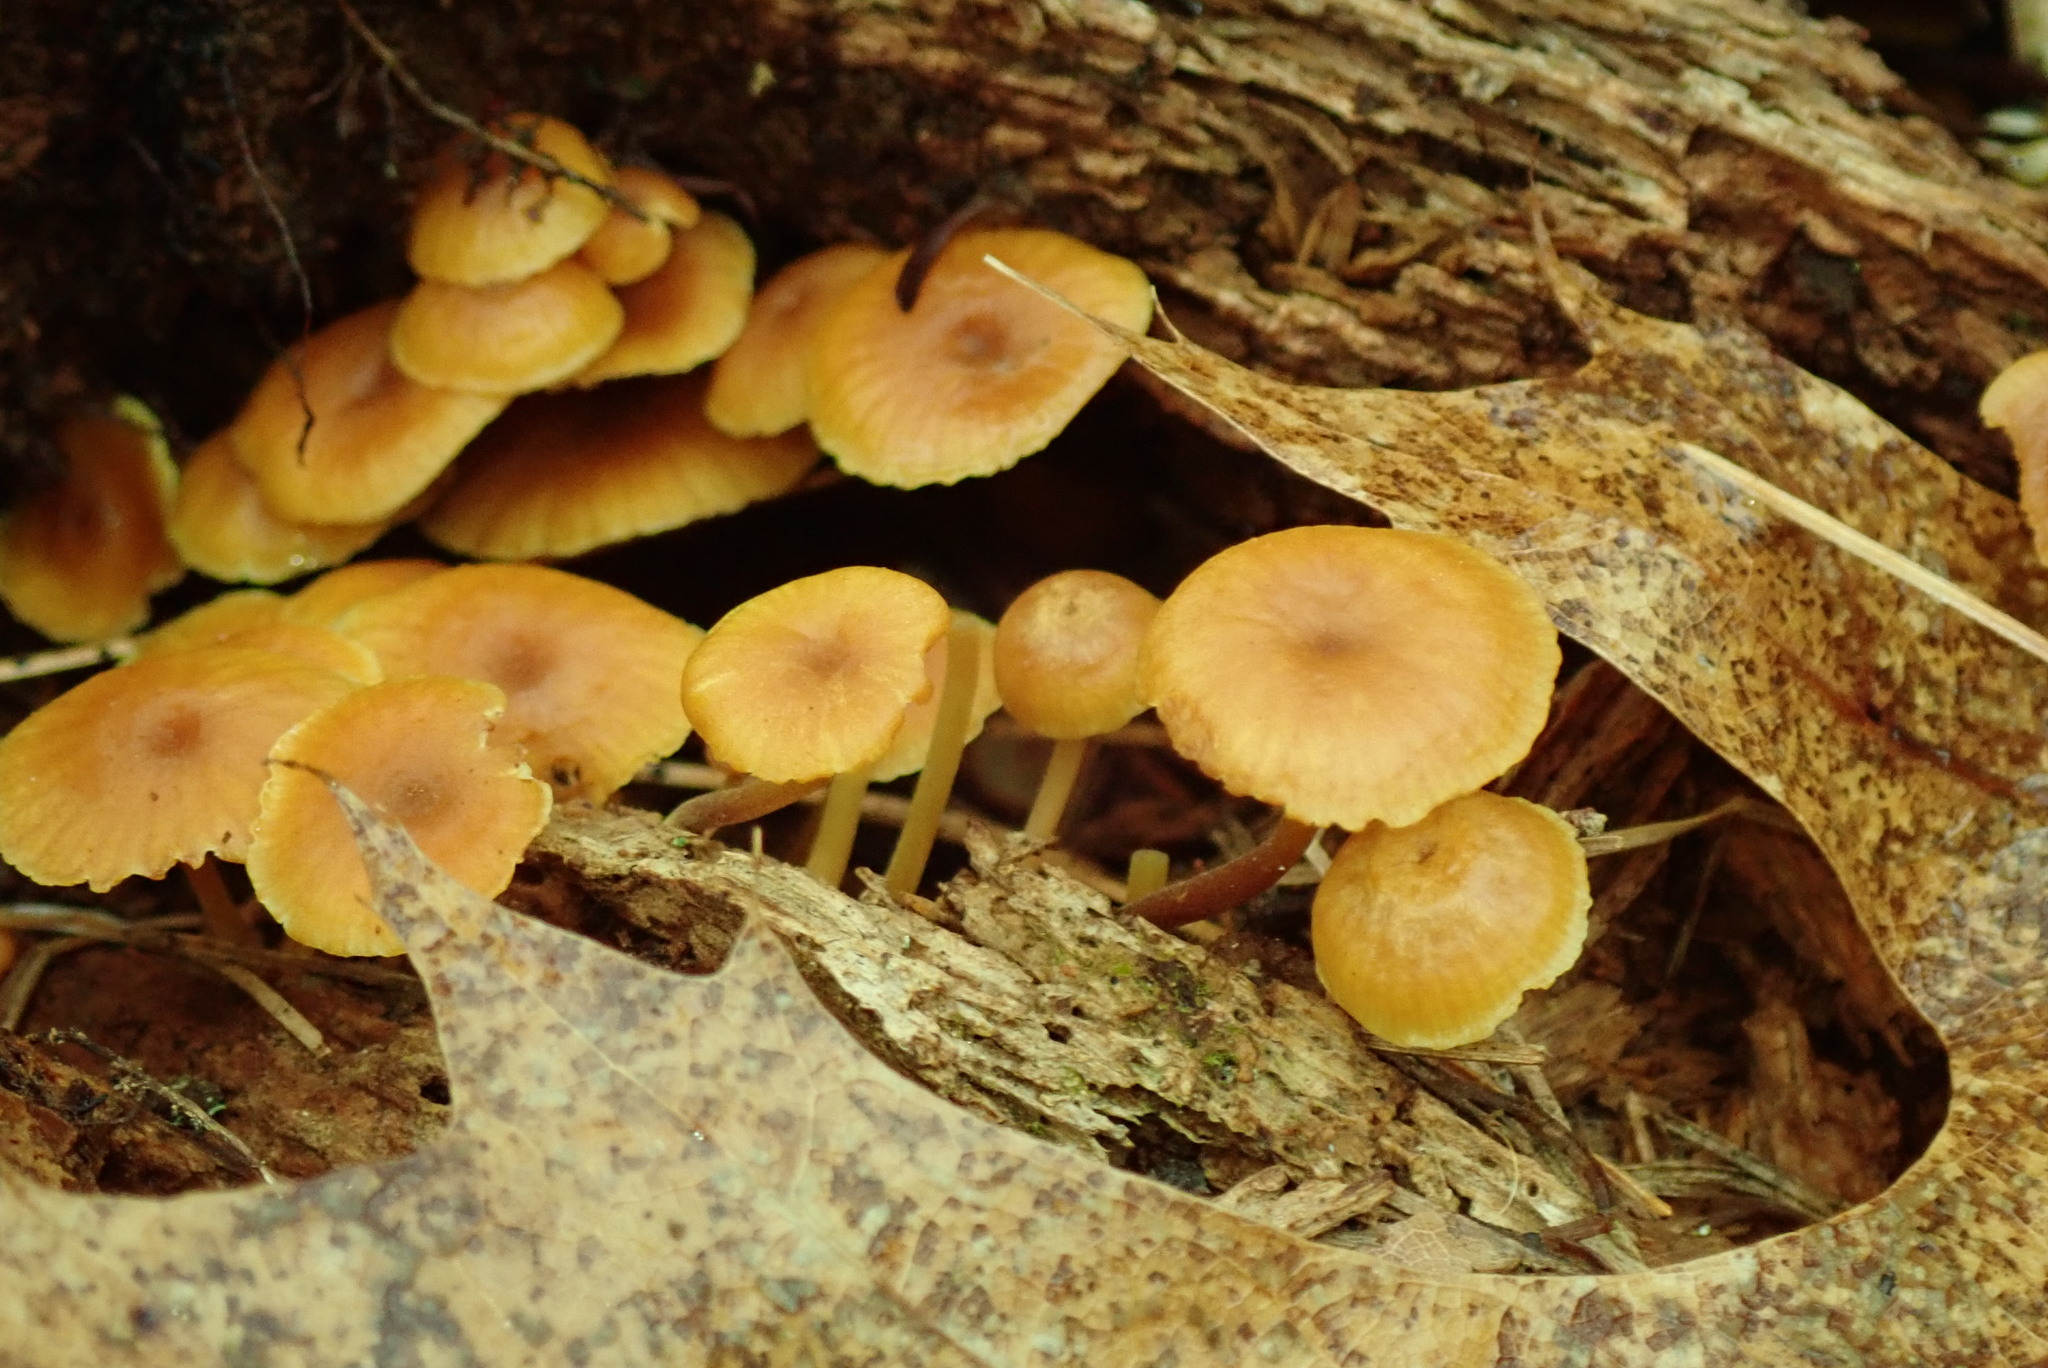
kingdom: Fungi
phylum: Basidiomycota
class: Agaricomycetes
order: Agaricales
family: Mycenaceae
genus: Xeromphalina
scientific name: Xeromphalina cauticinalis
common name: Pinelitter gingertail
